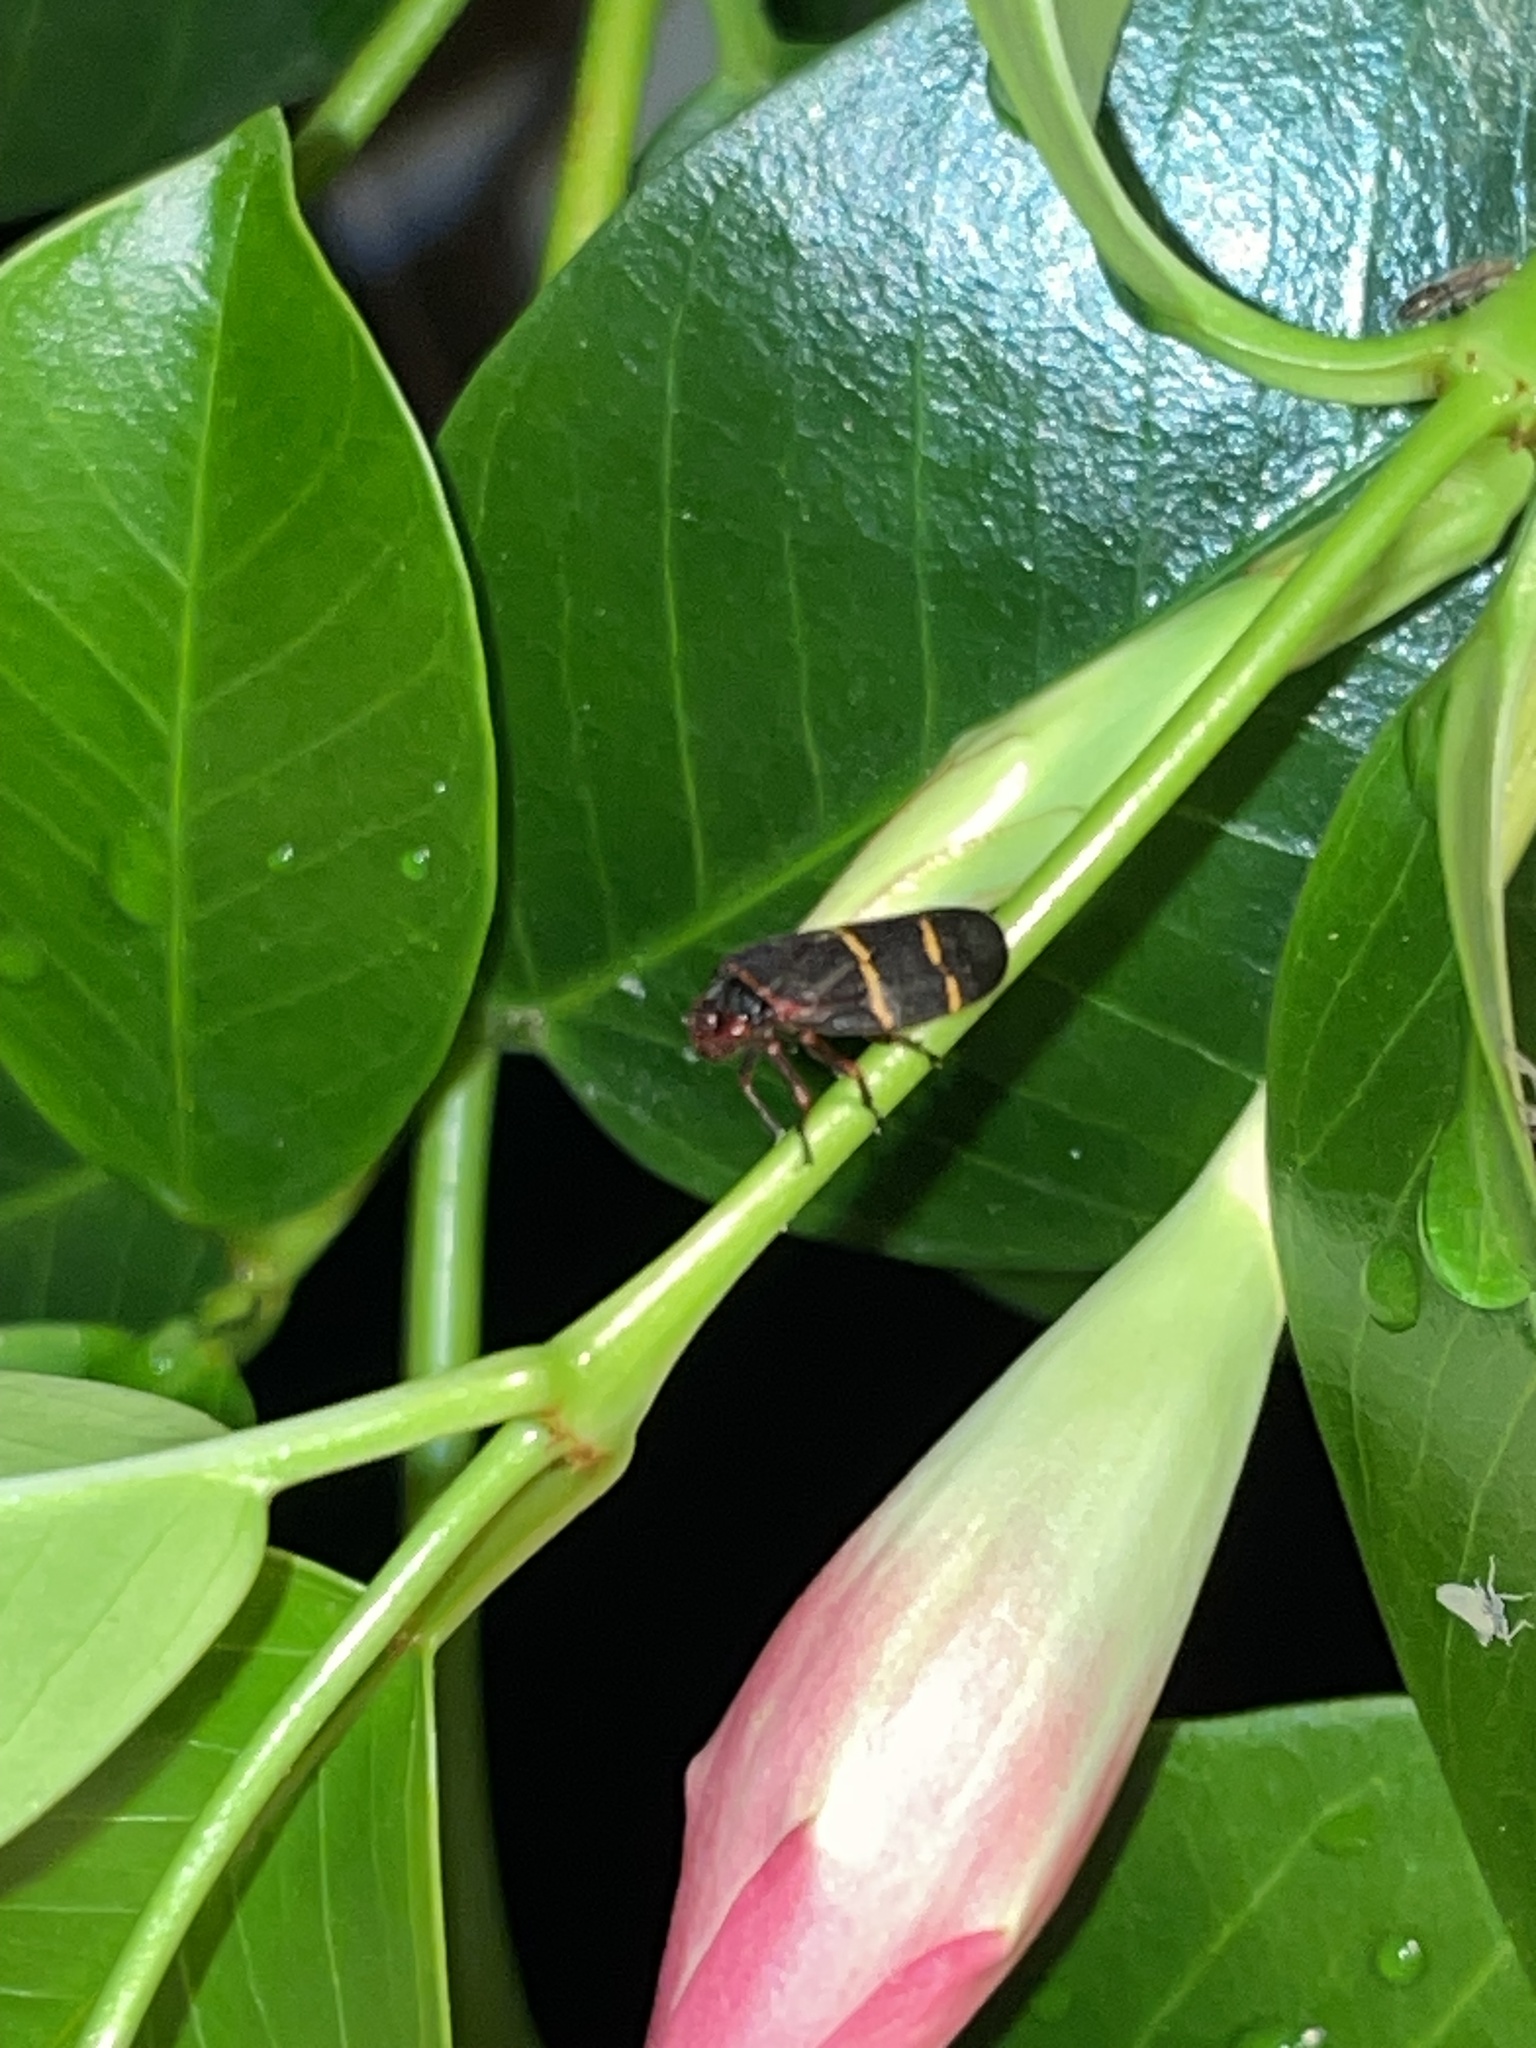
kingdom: Animalia
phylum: Arthropoda
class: Insecta
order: Hemiptera
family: Cercopidae
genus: Prosapia
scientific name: Prosapia bicincta
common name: Twolined spittlebug
